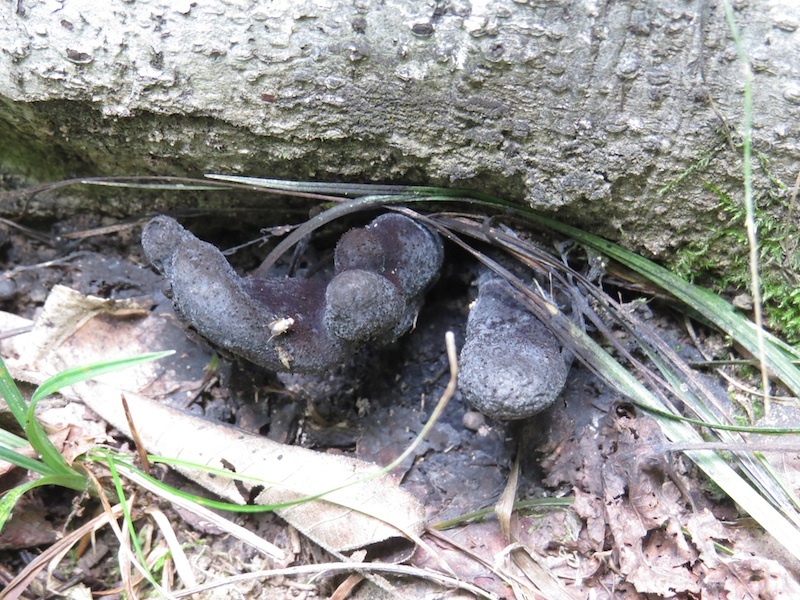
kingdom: Fungi
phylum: Ascomycota
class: Sordariomycetes
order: Xylariales
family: Xylariaceae
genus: Xylaria
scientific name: Xylaria polymorpha
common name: Dead man's fingers
